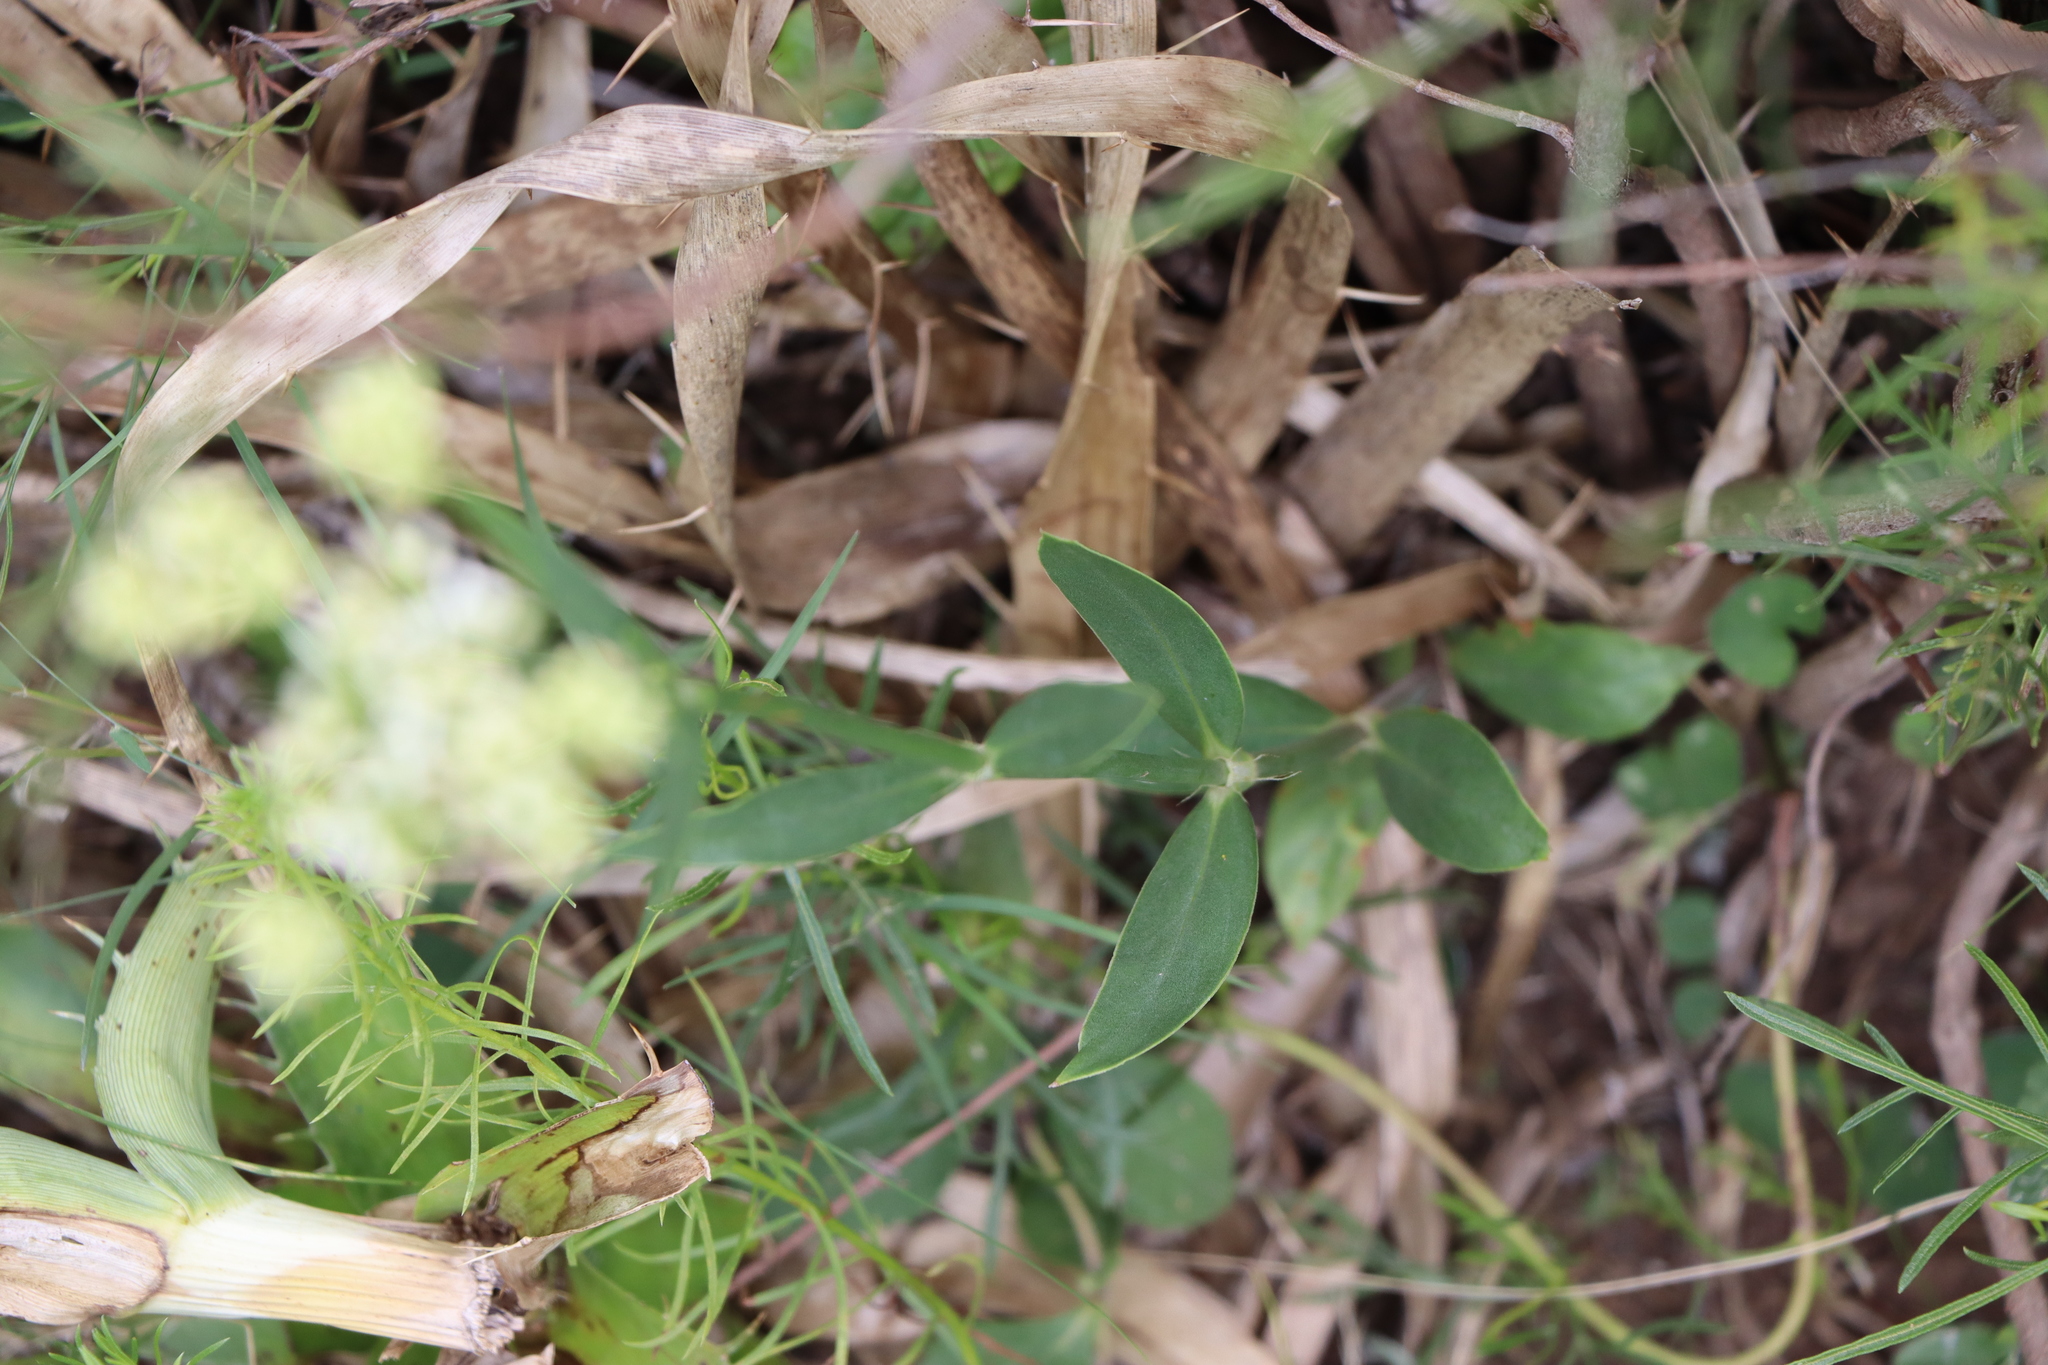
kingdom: Plantae
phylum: Tracheophyta
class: Magnoliopsida
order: Gentianales
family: Rubiaceae
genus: Galianthe
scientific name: Galianthe fastigiata
